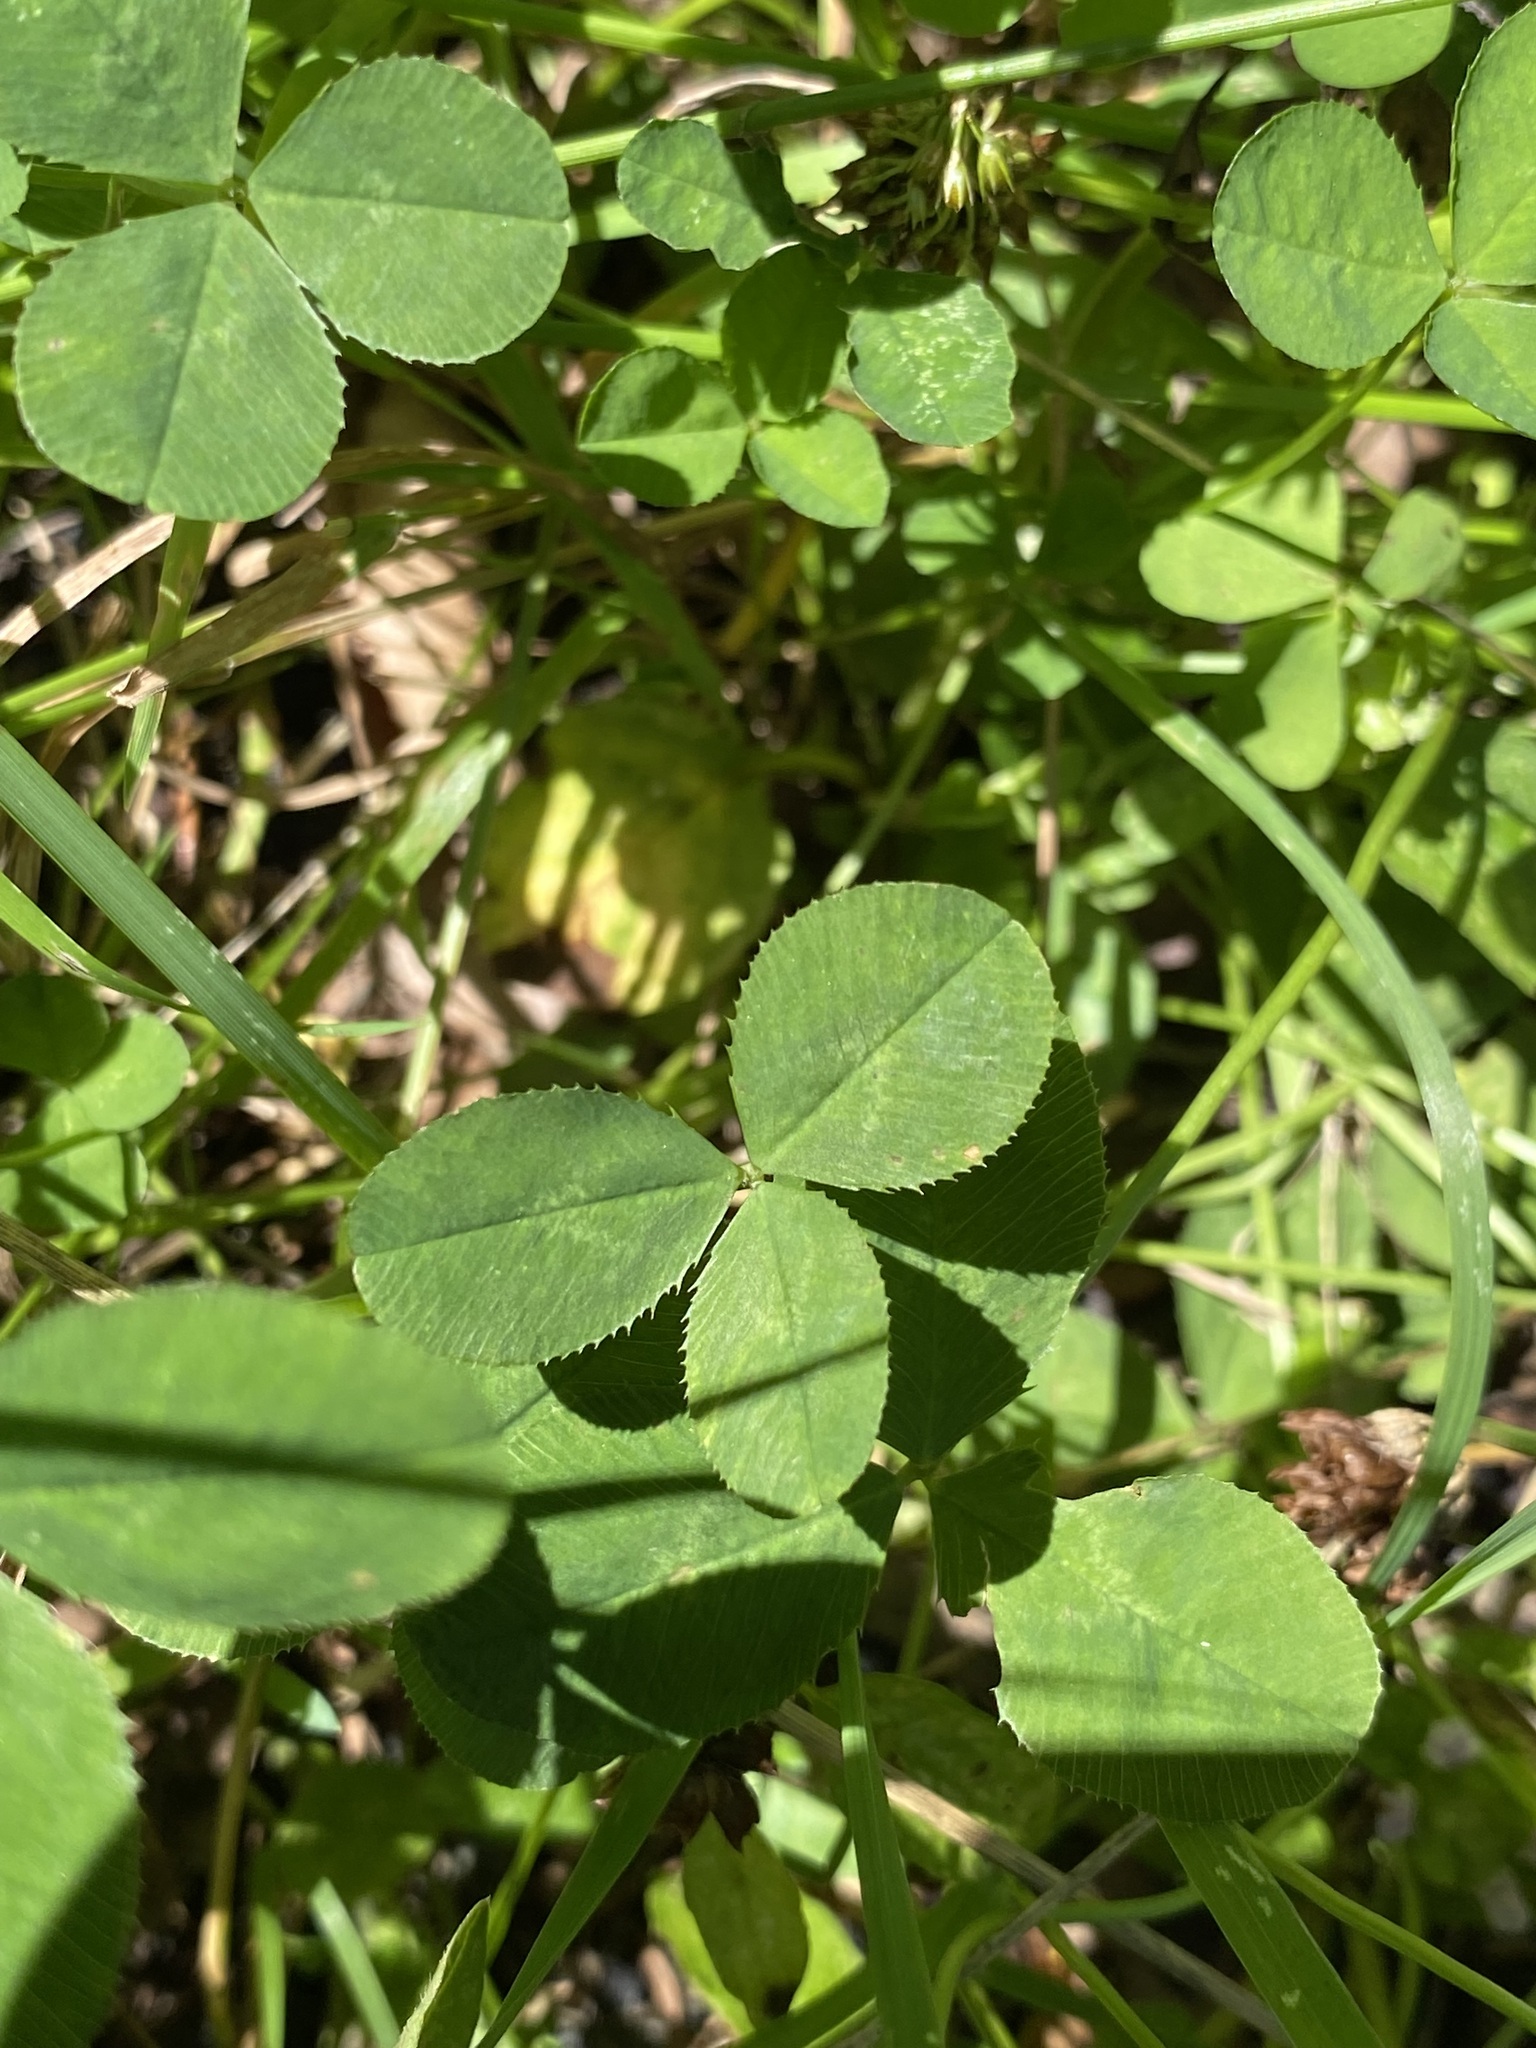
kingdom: Plantae
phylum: Tracheophyta
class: Magnoliopsida
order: Fabales
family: Fabaceae
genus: Trifolium
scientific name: Trifolium repens
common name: White clover
